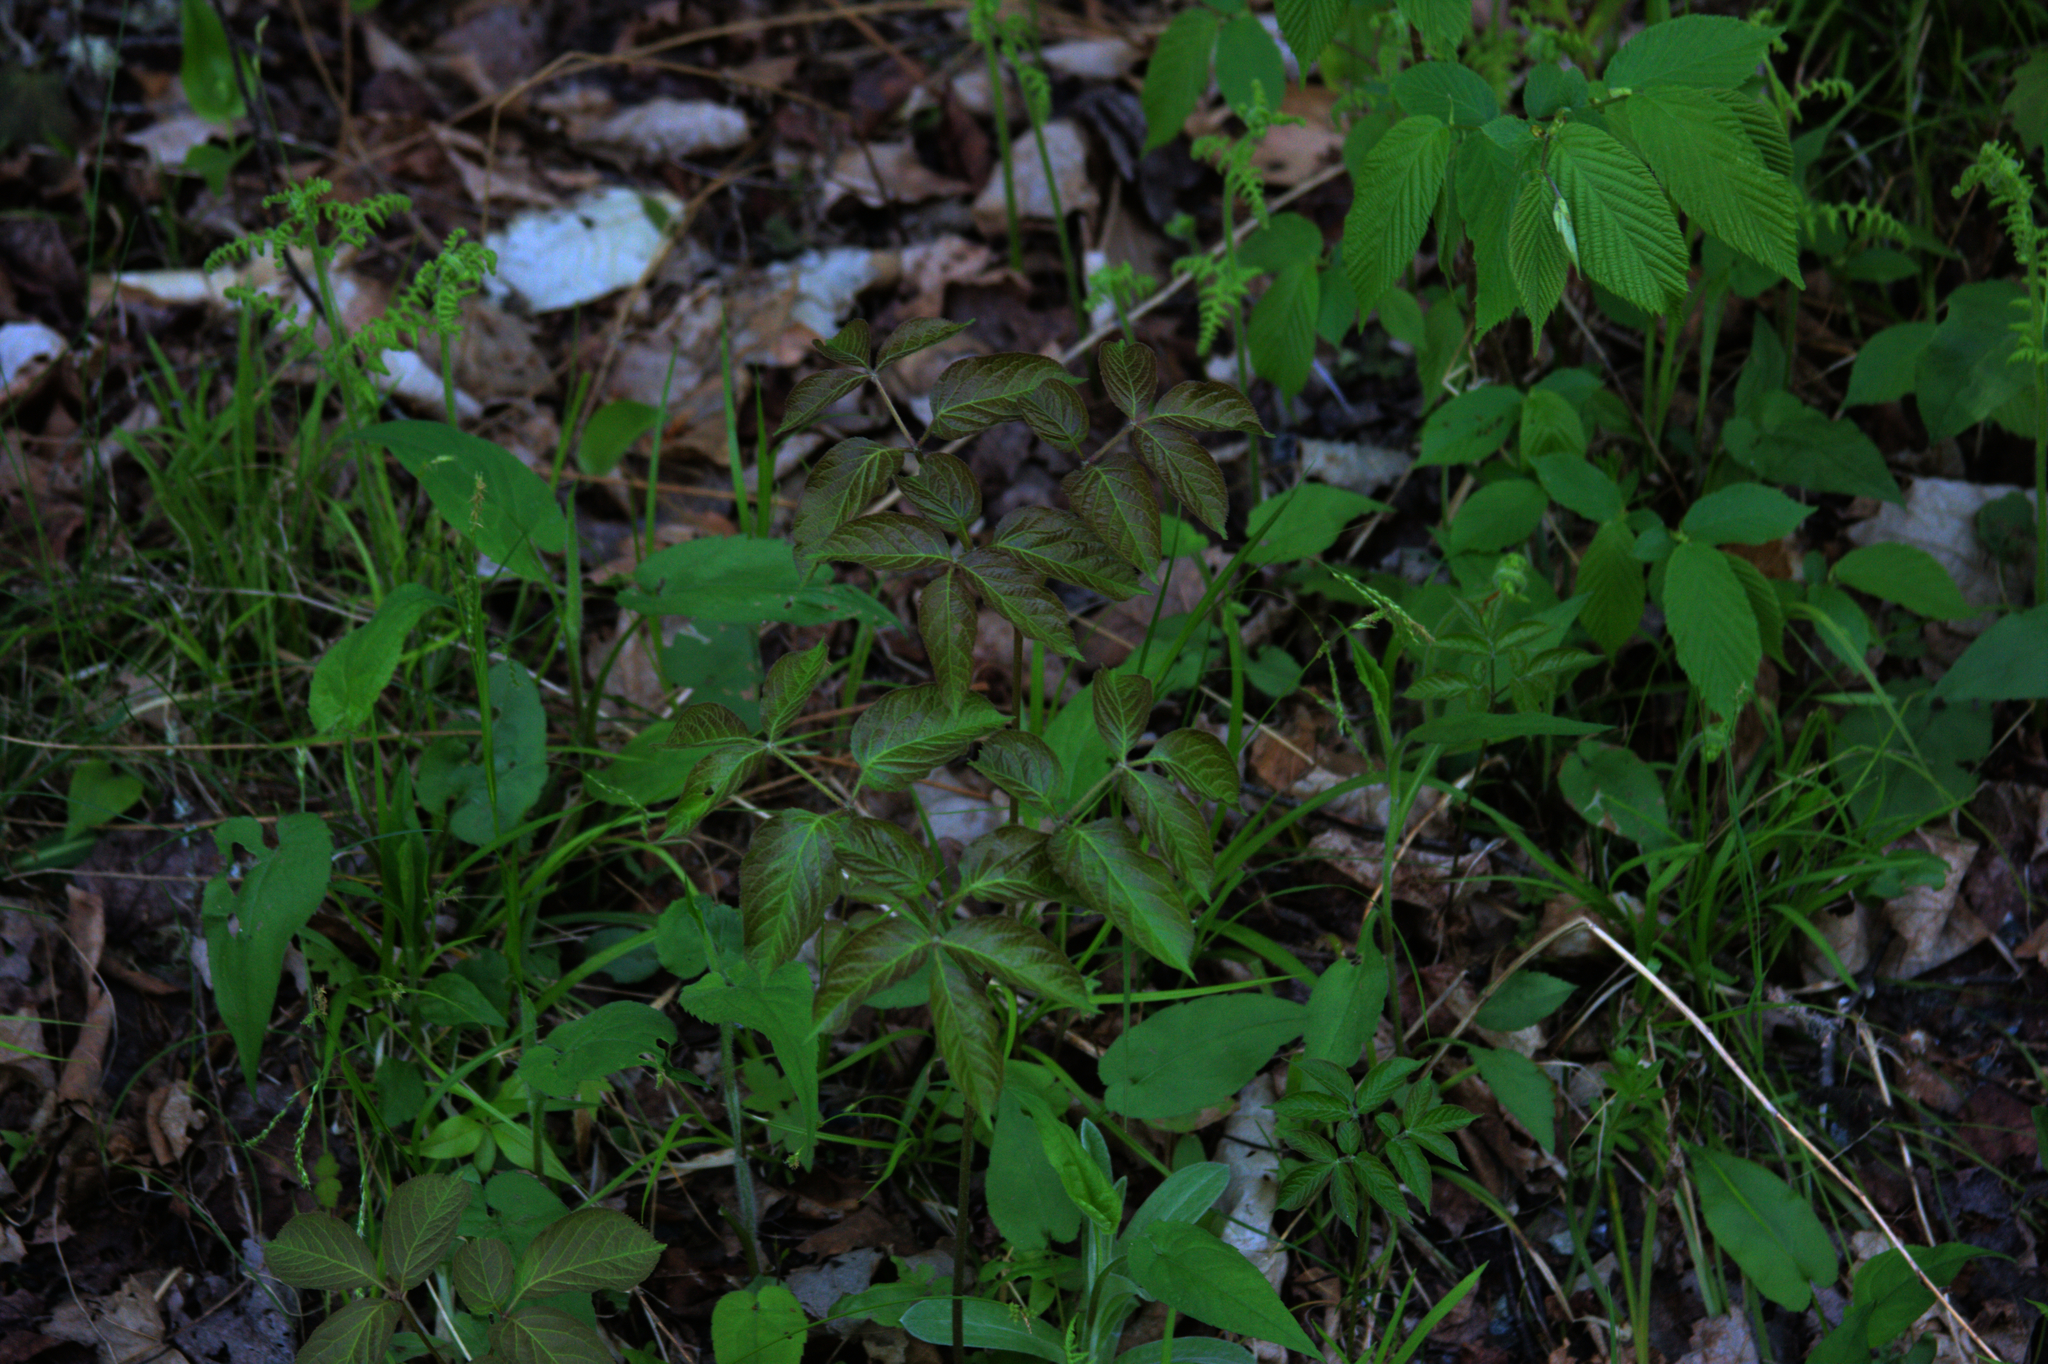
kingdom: Plantae
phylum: Tracheophyta
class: Magnoliopsida
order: Apiales
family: Araliaceae
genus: Aralia
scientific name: Aralia nudicaulis
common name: Wild sarsaparilla
